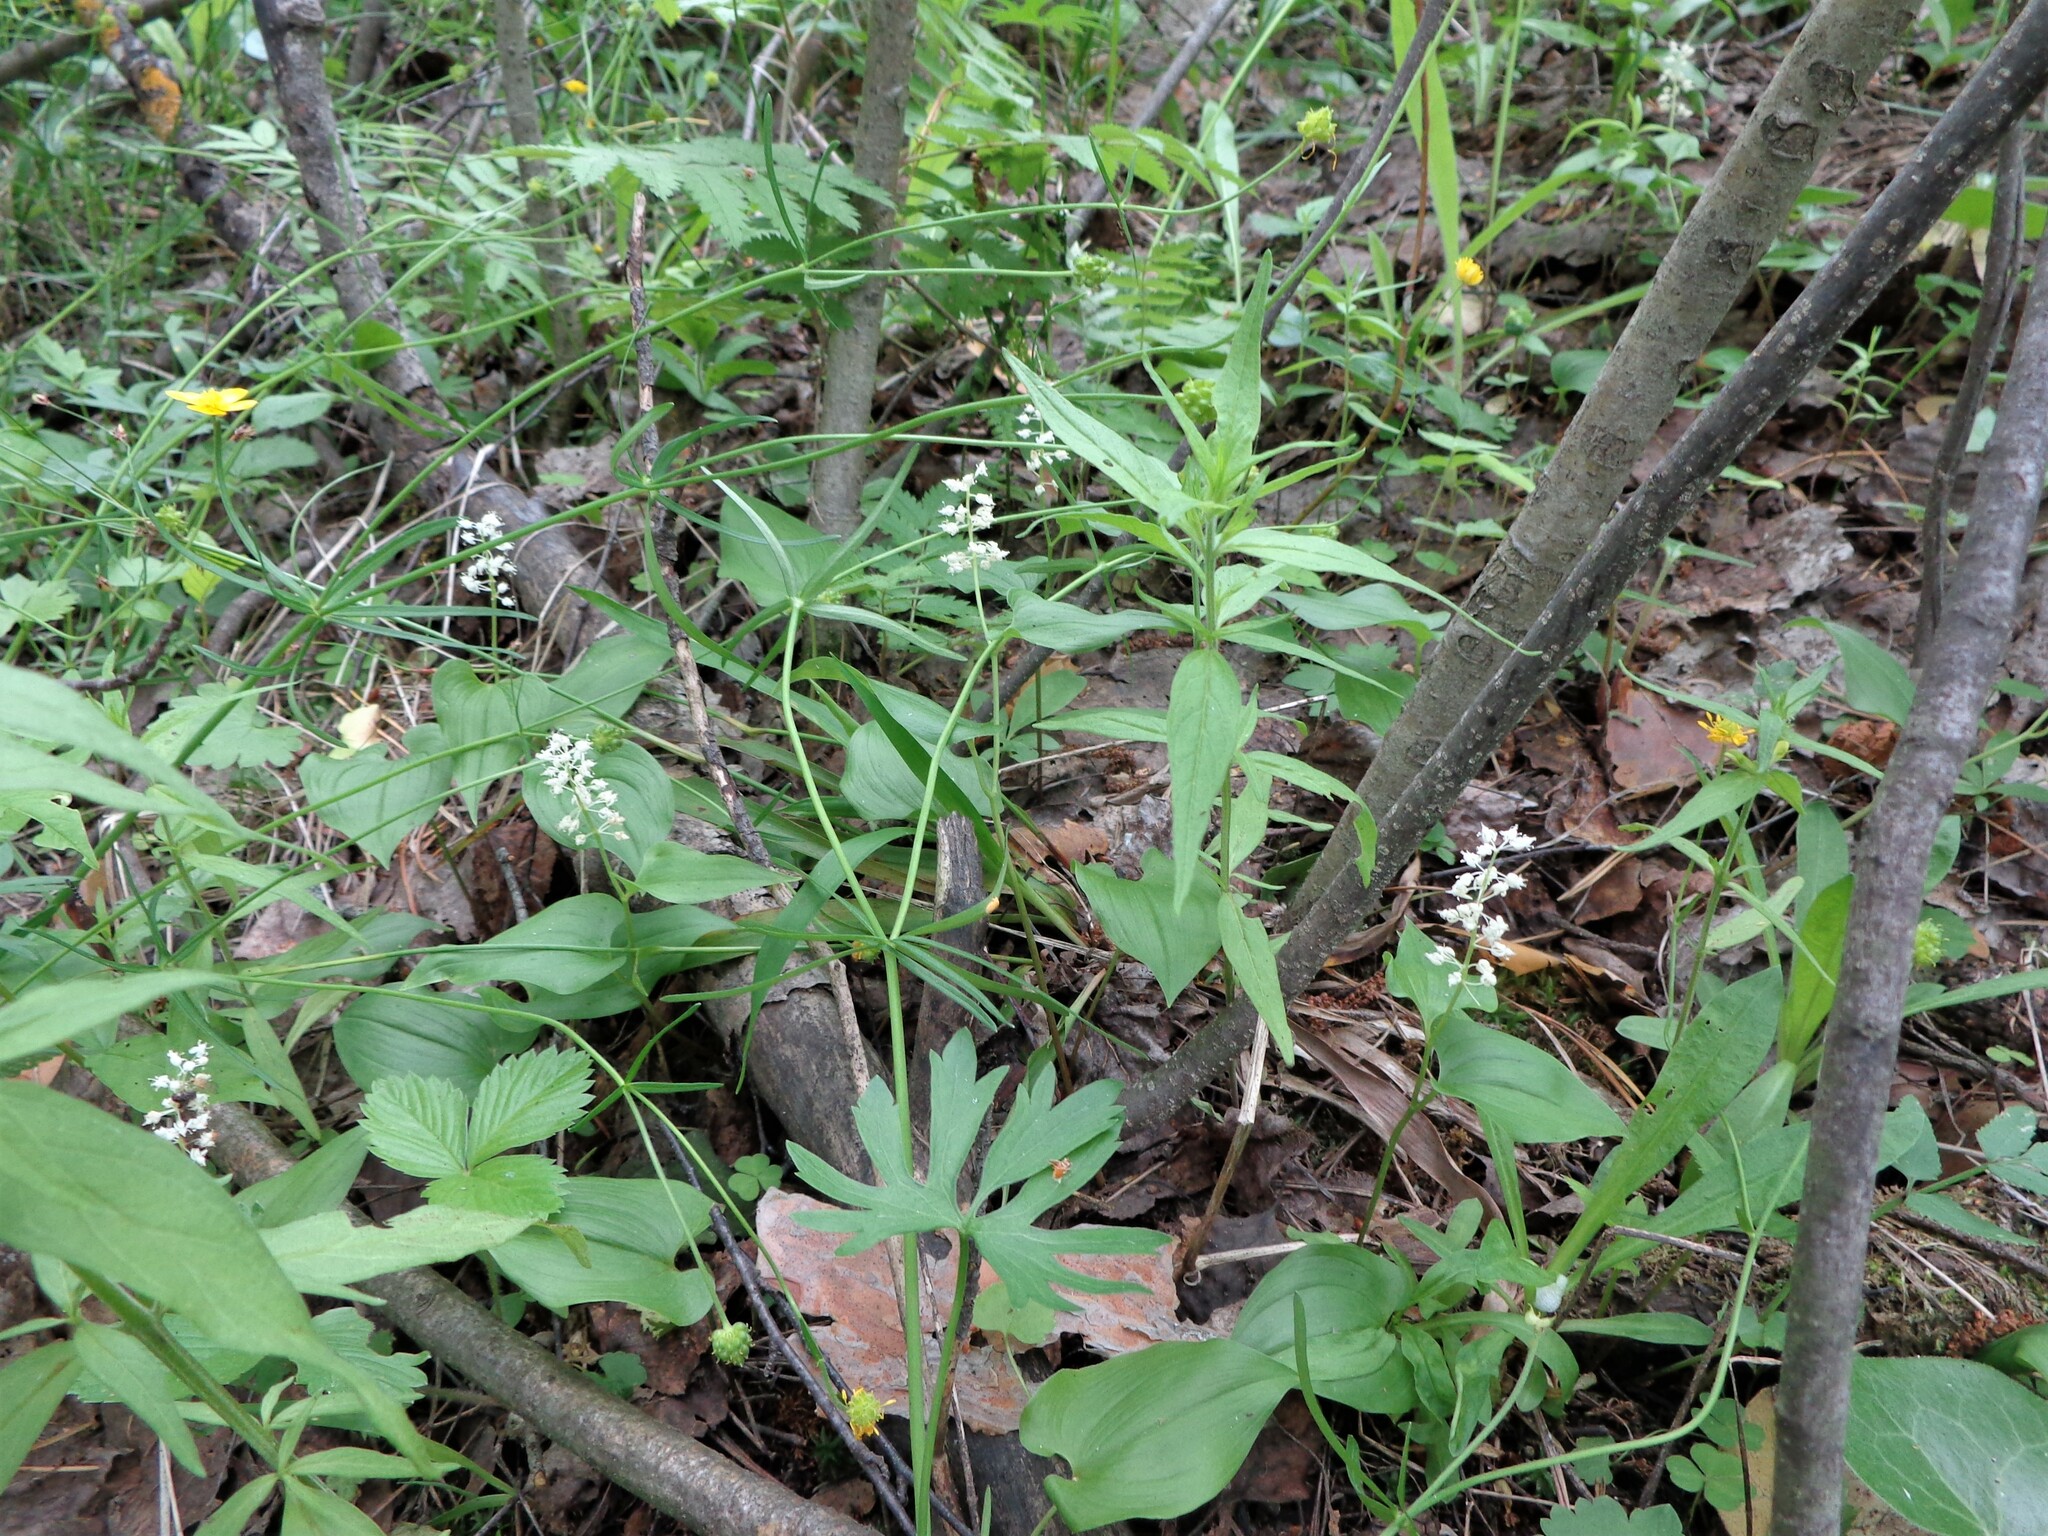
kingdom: Plantae
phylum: Tracheophyta
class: Liliopsida
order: Asparagales
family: Asparagaceae
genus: Maianthemum
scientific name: Maianthemum bifolium
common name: May lily
